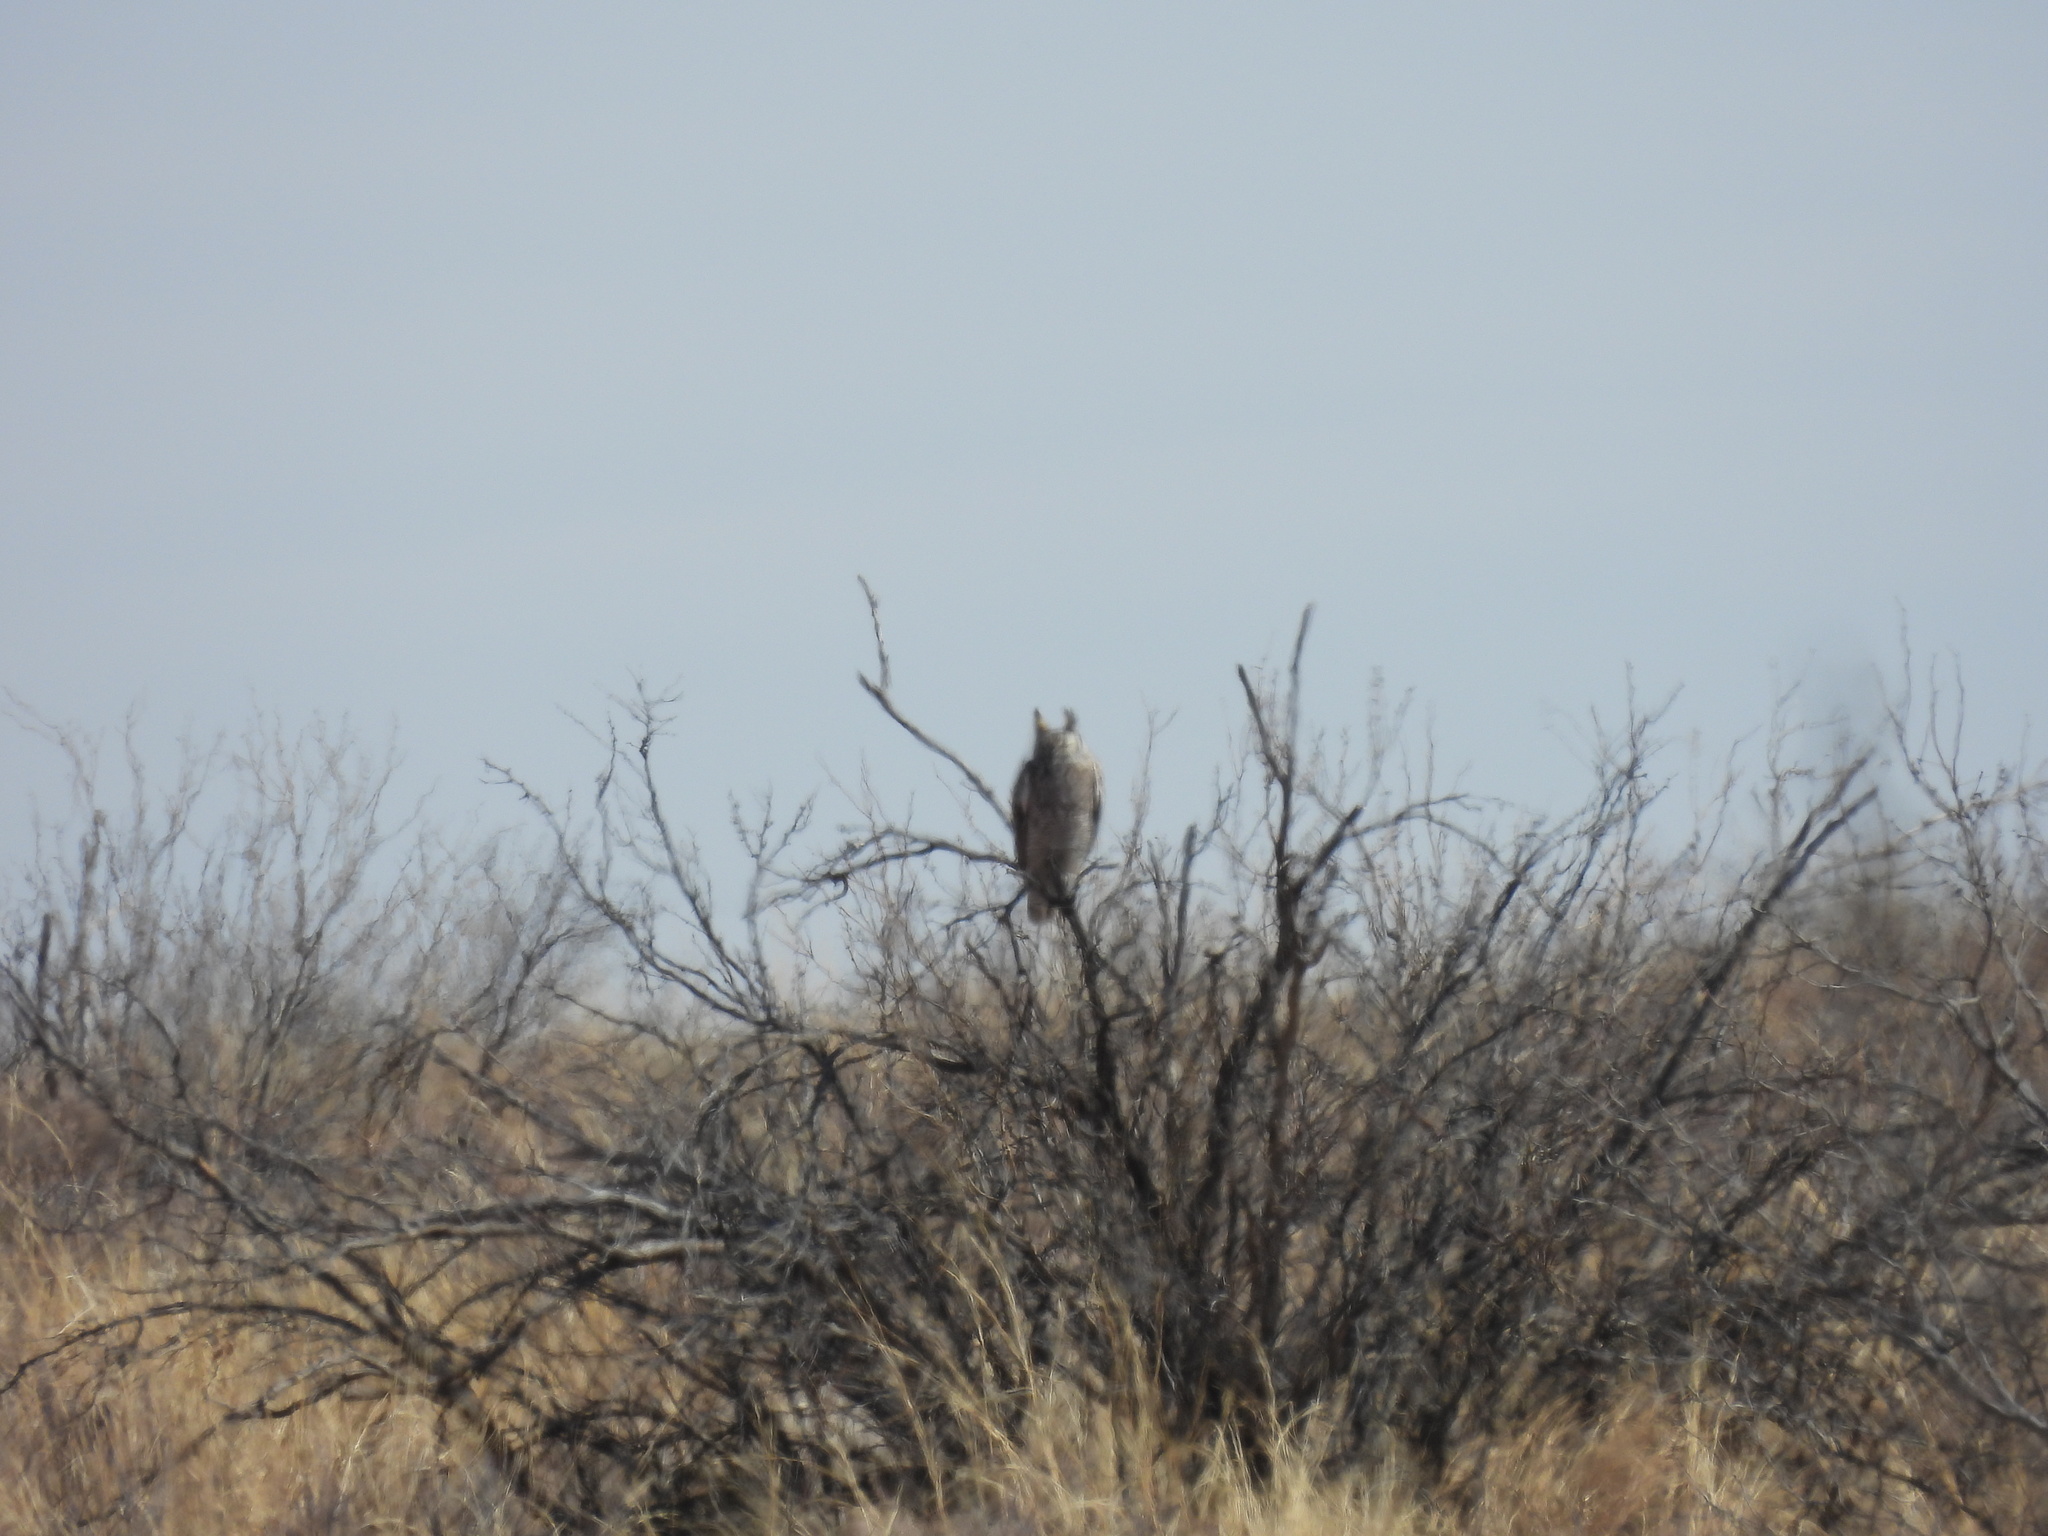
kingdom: Animalia
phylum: Chordata
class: Aves
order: Strigiformes
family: Strigidae
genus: Bubo
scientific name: Bubo virginianus
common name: Great horned owl
